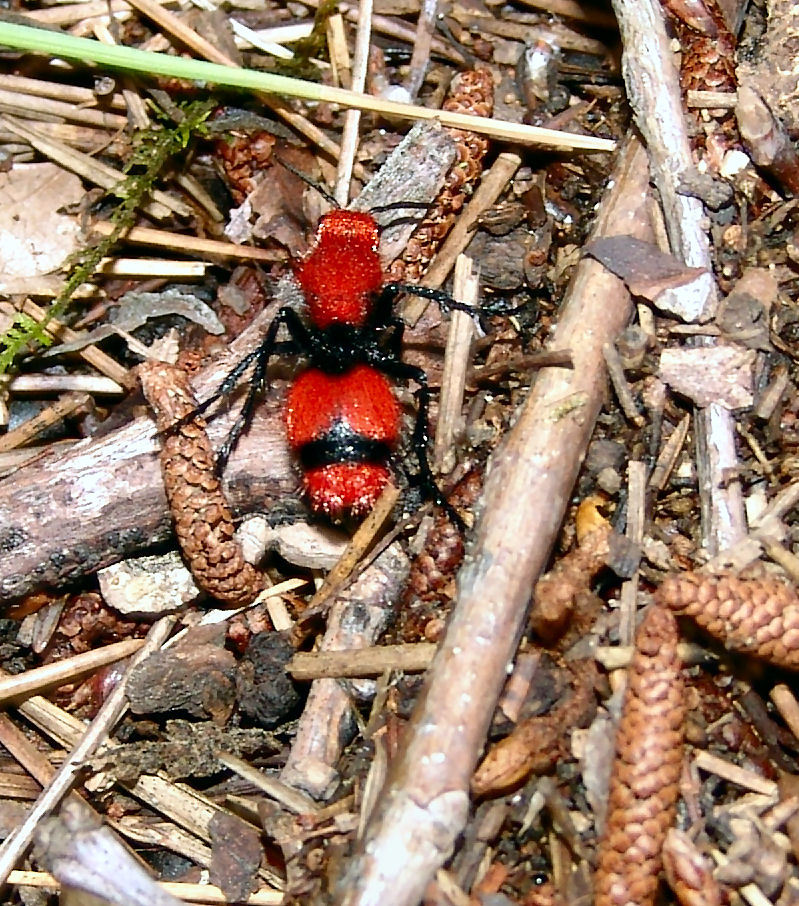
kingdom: Animalia
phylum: Arthropoda
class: Insecta
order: Hymenoptera
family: Mutillidae
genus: Dasymutilla
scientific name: Dasymutilla occidentalis
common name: Common eastern velvet ant
